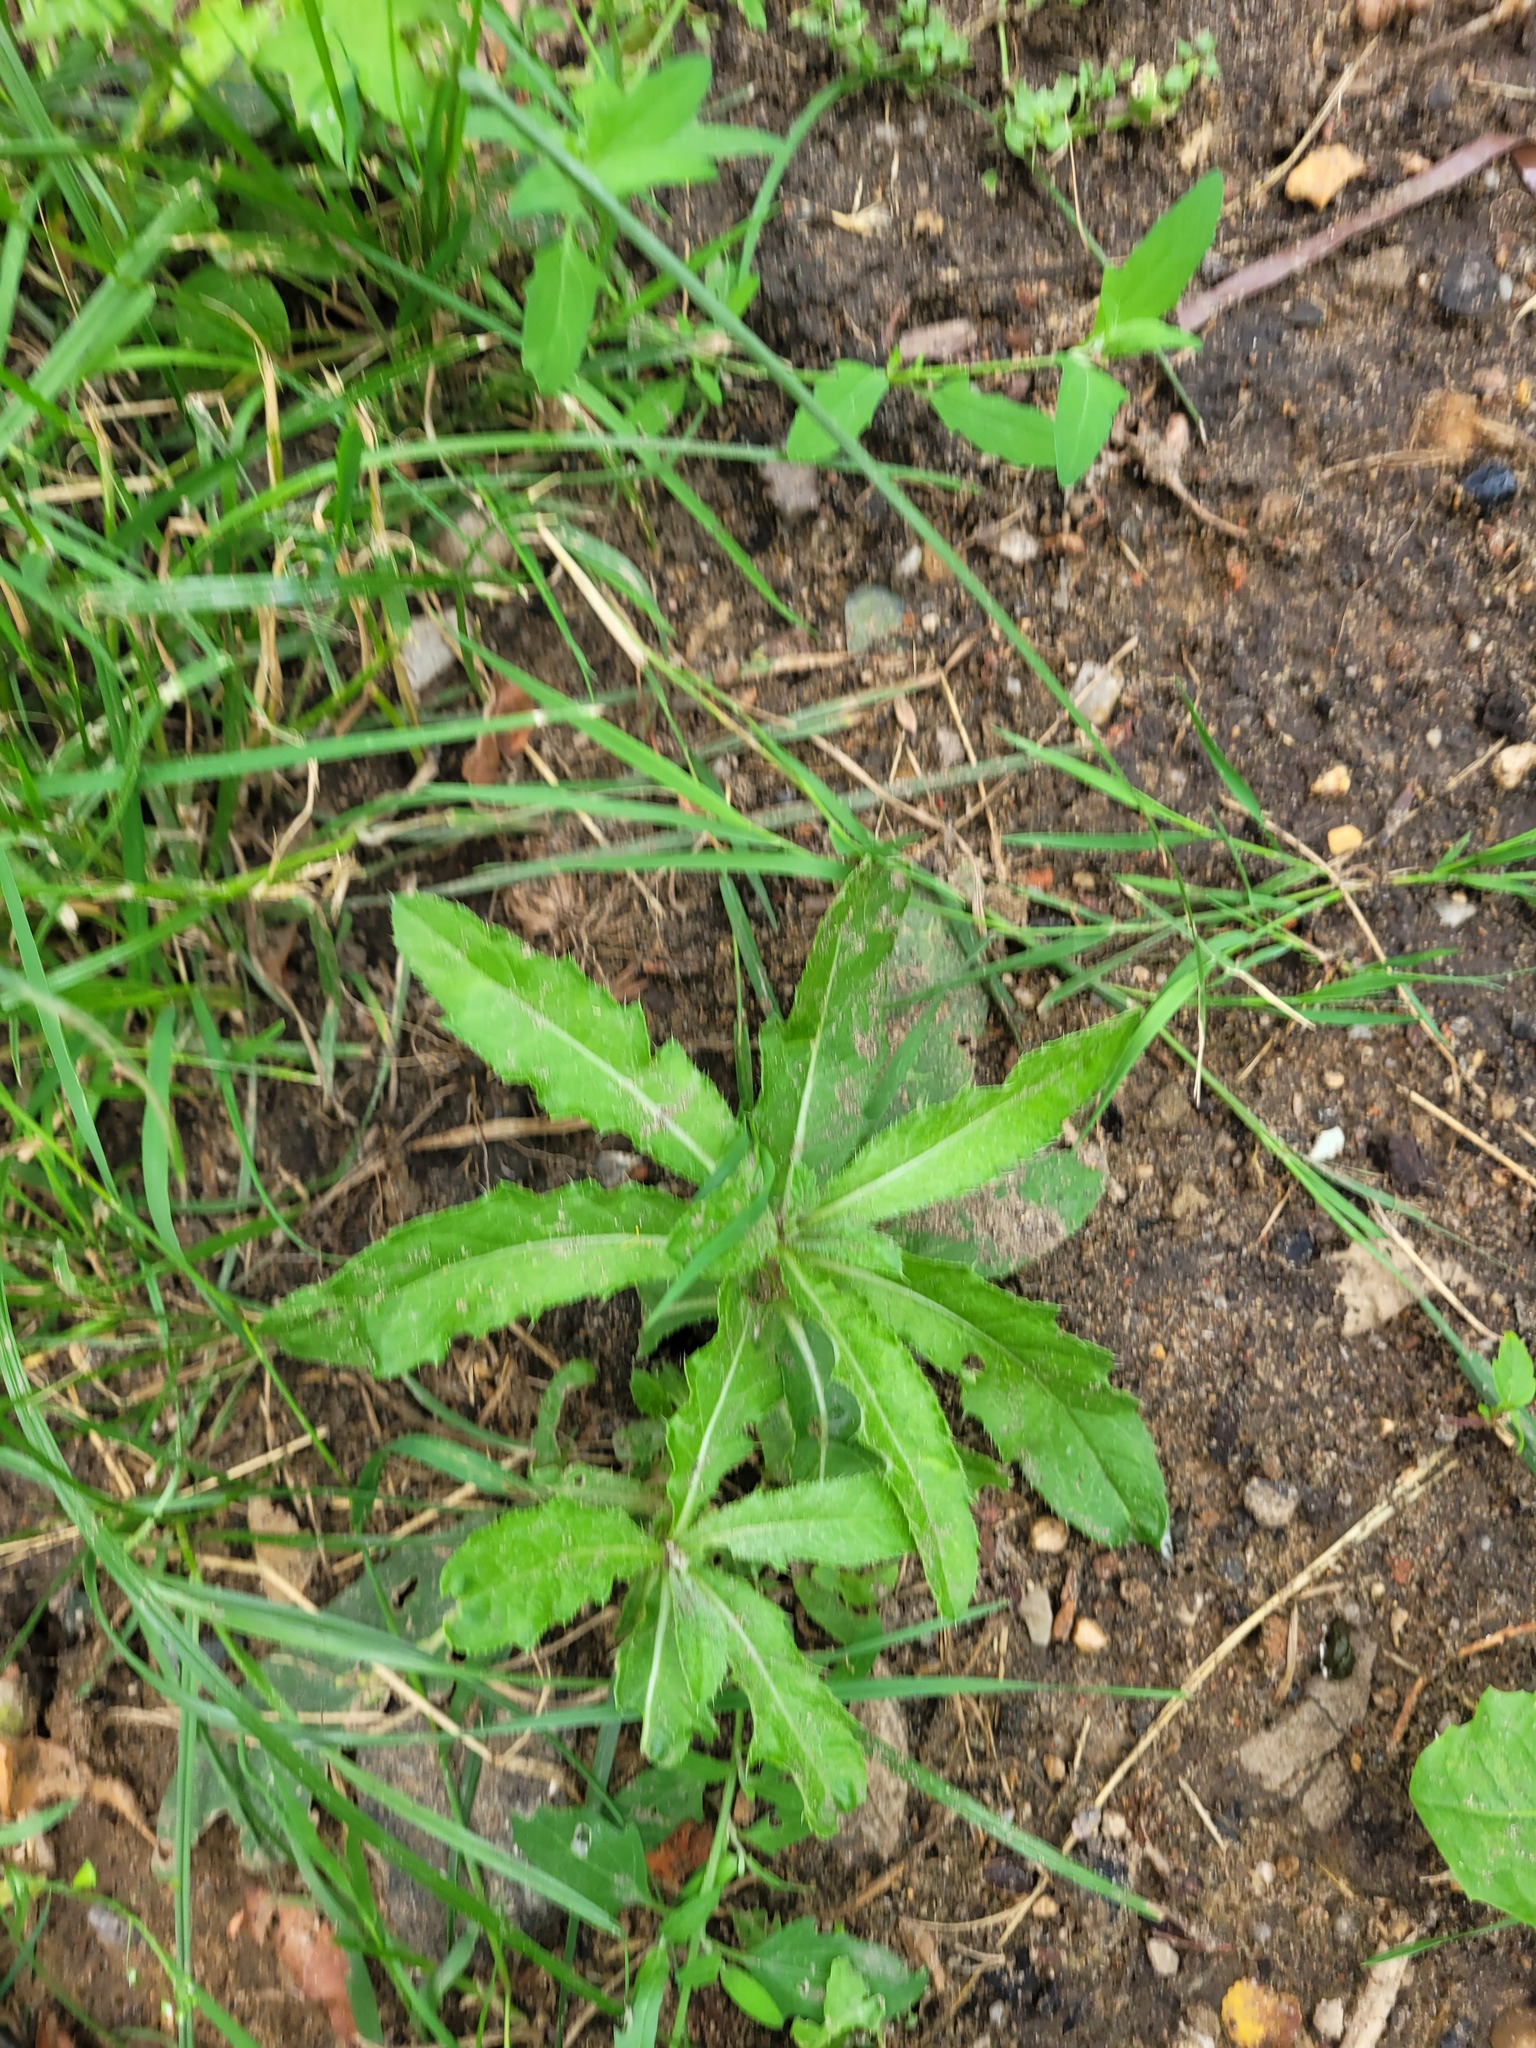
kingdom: Plantae
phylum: Tracheophyta
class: Magnoliopsida
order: Asterales
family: Asteraceae
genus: Cirsium
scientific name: Cirsium arvense
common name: Creeping thistle
